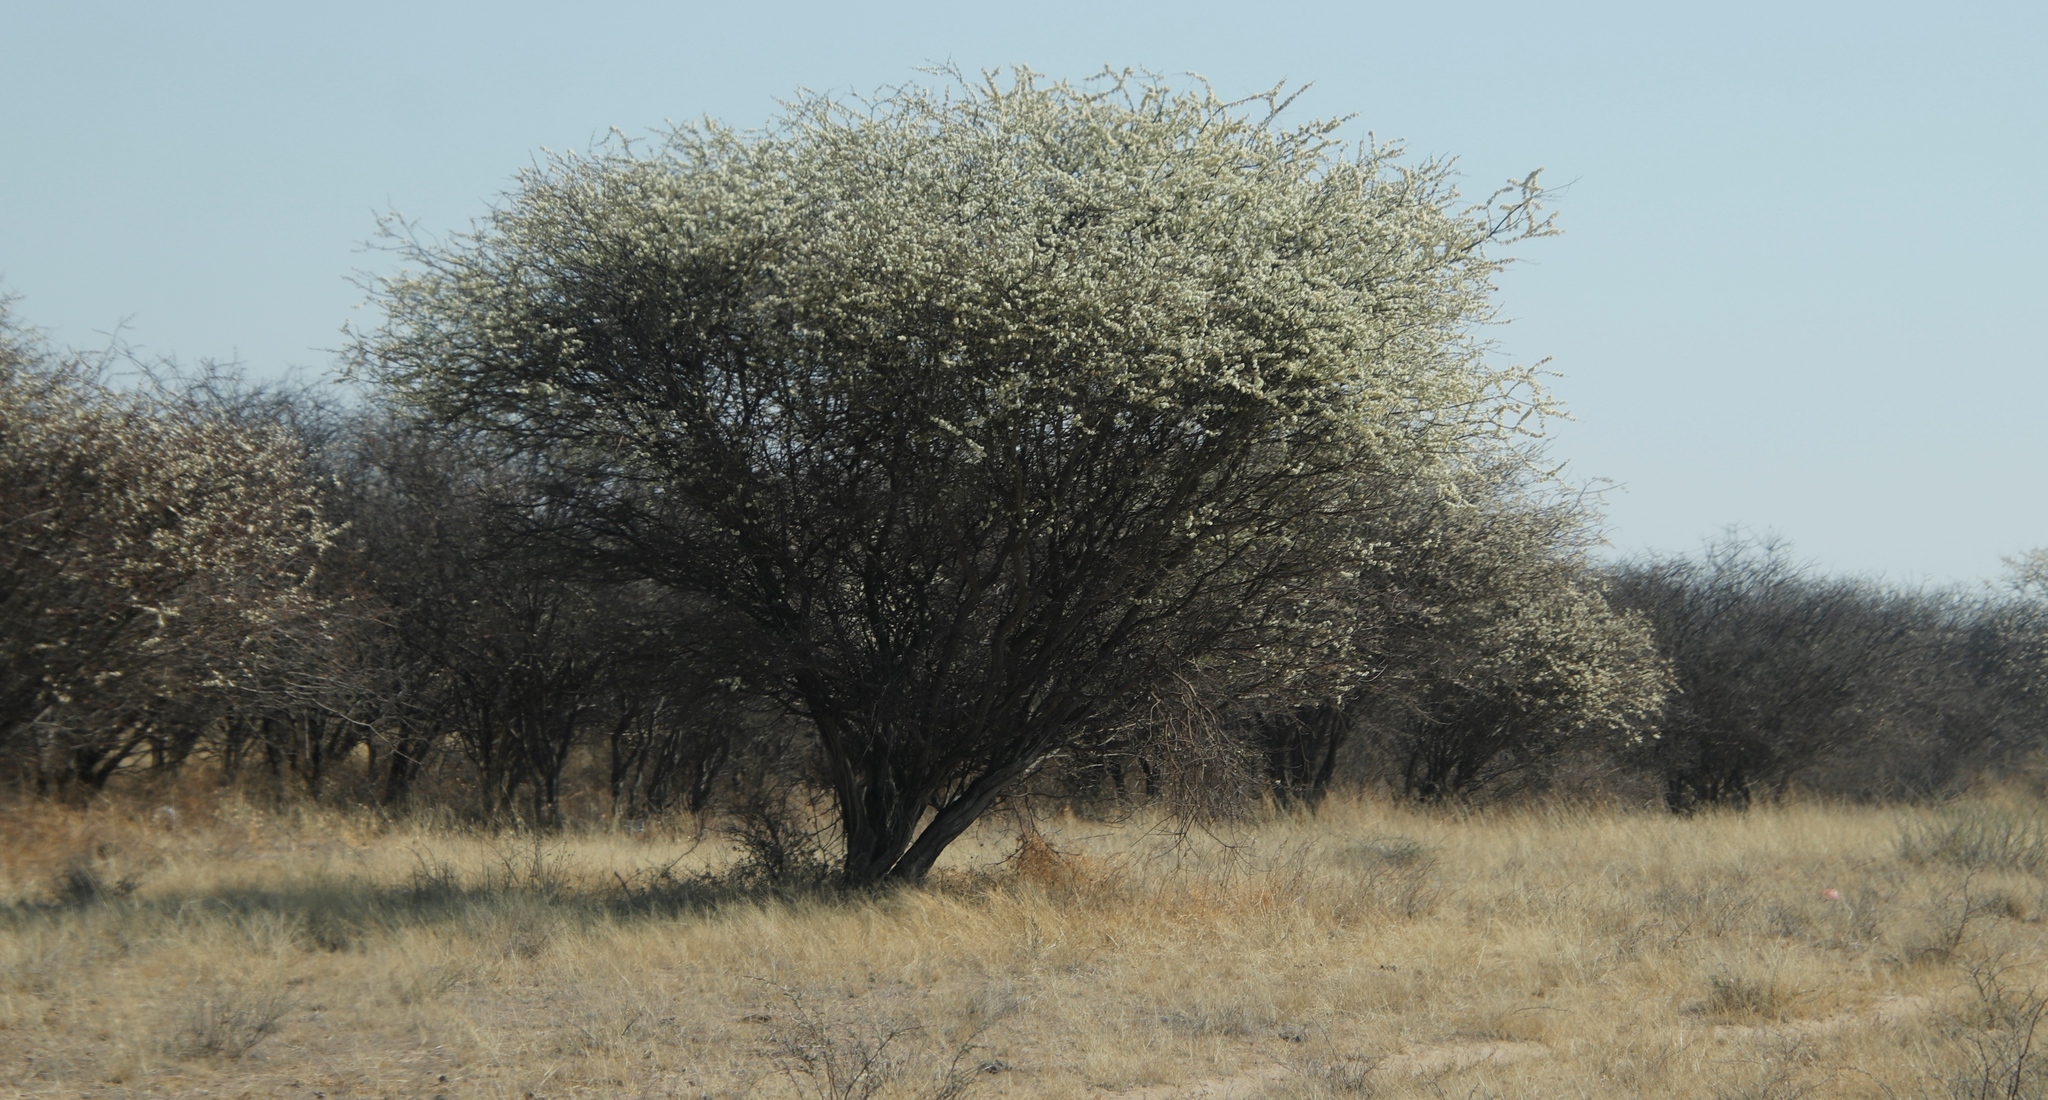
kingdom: Plantae
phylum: Tracheophyta
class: Magnoliopsida
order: Fabales
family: Fabaceae
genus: Senegalia
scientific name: Senegalia mellifera
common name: Hookthorn
